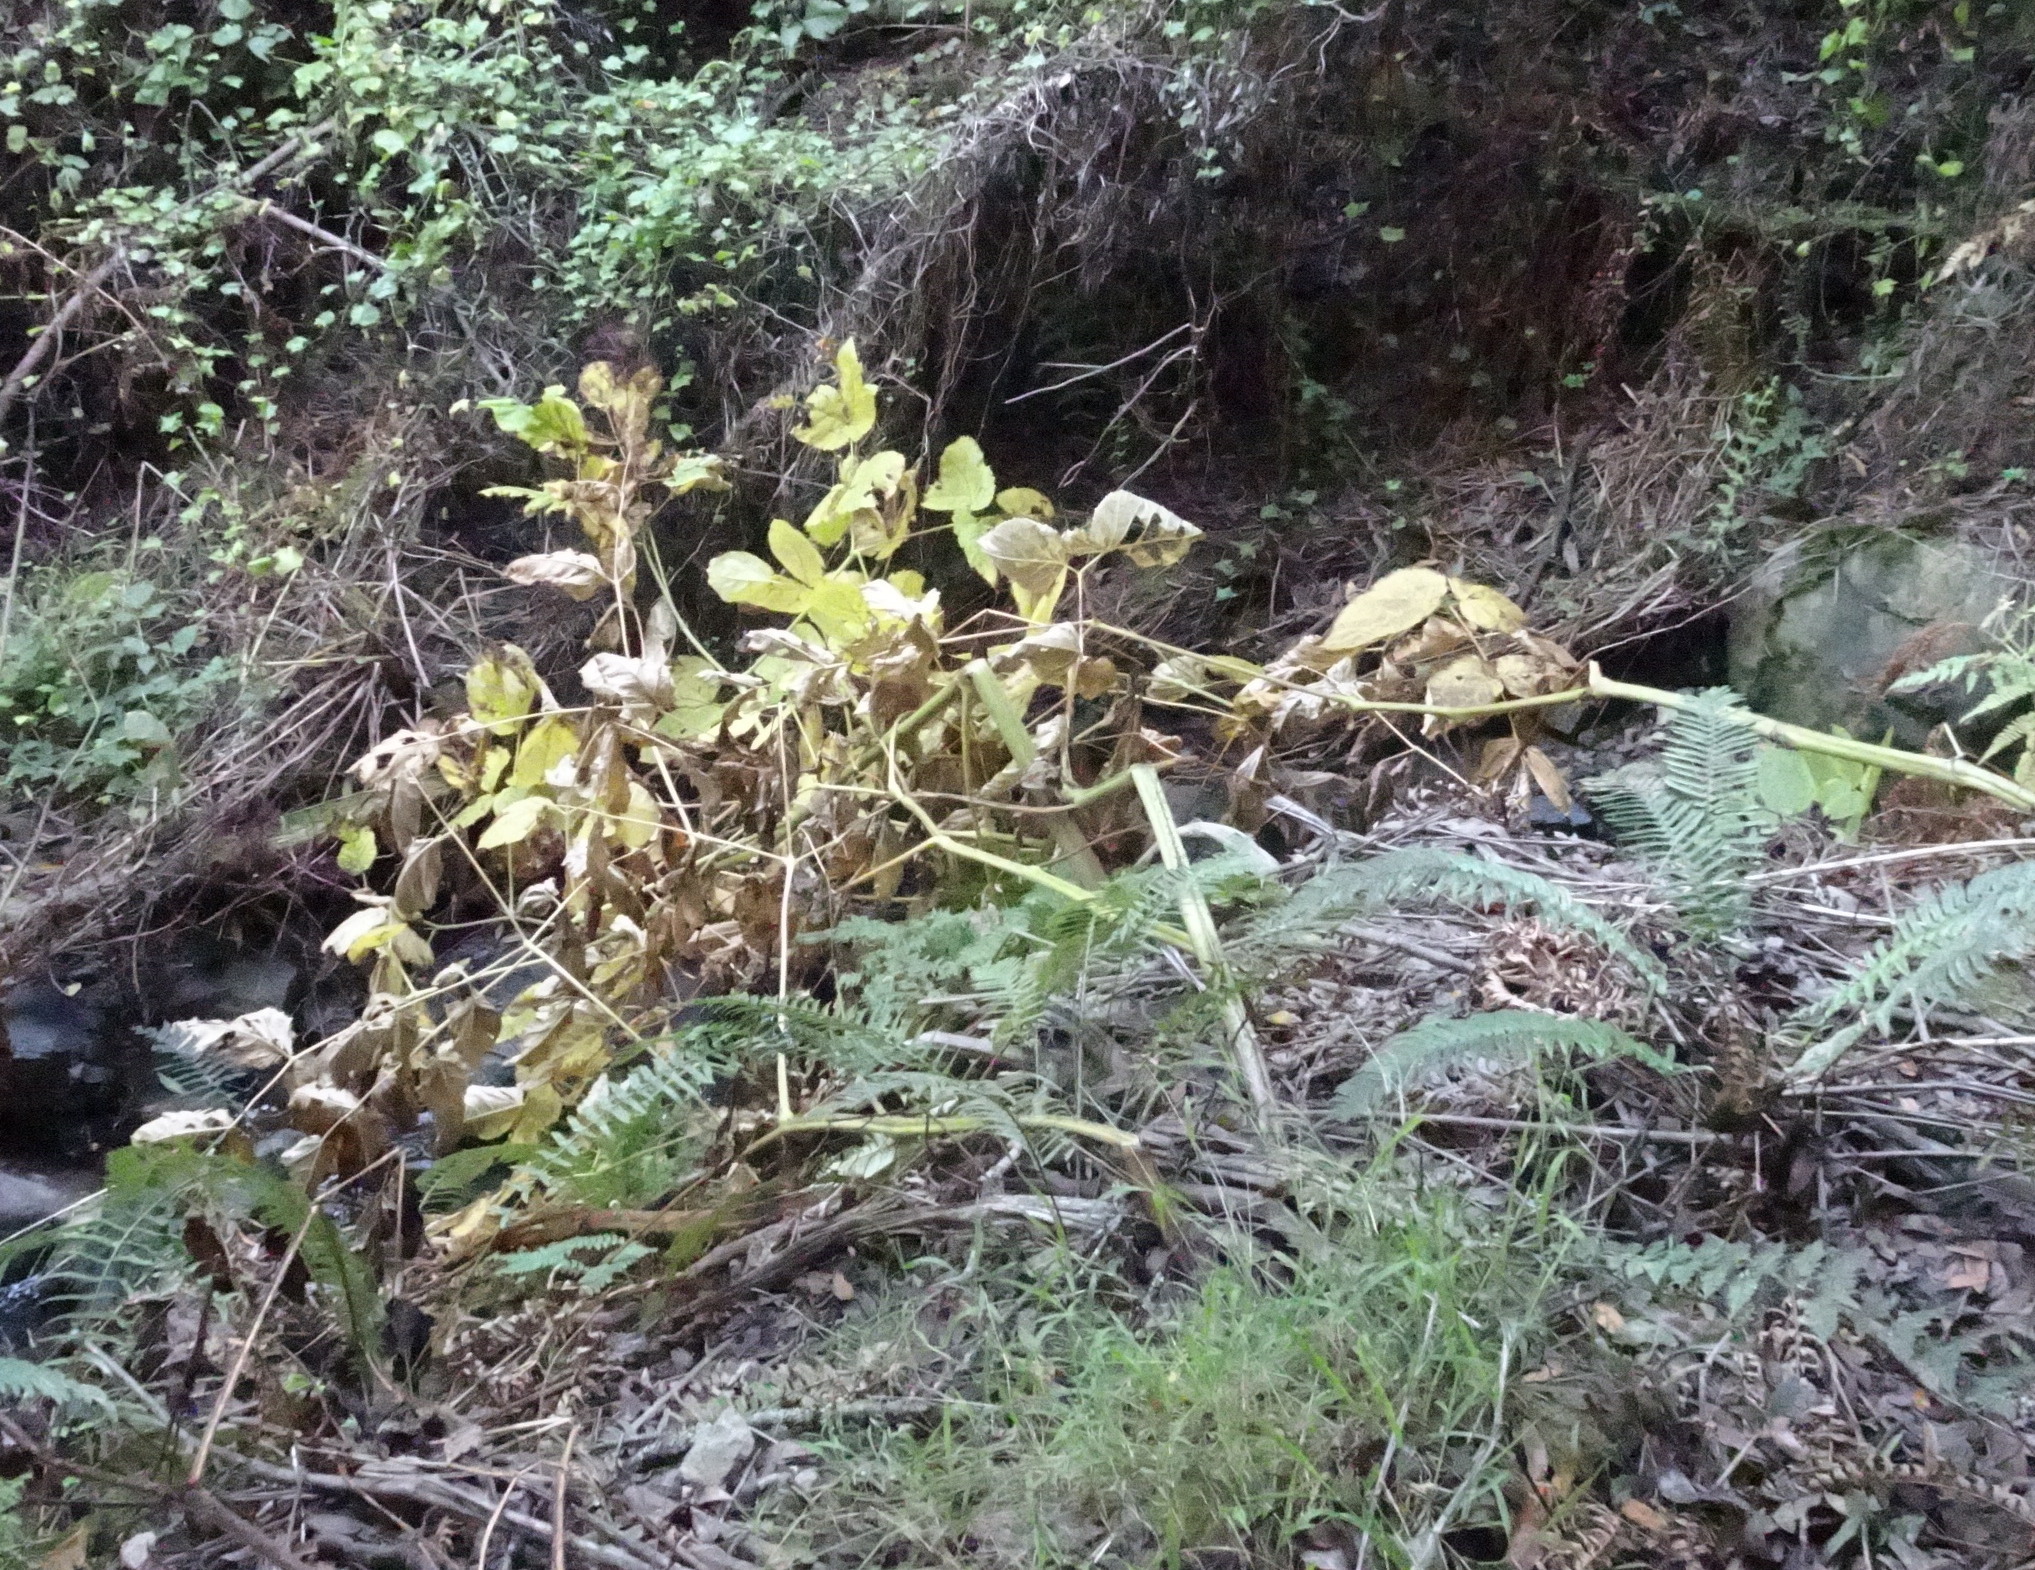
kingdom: Plantae
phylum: Tracheophyta
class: Magnoliopsida
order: Apiales
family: Araliaceae
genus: Aralia
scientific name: Aralia californica
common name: California-ginseng
